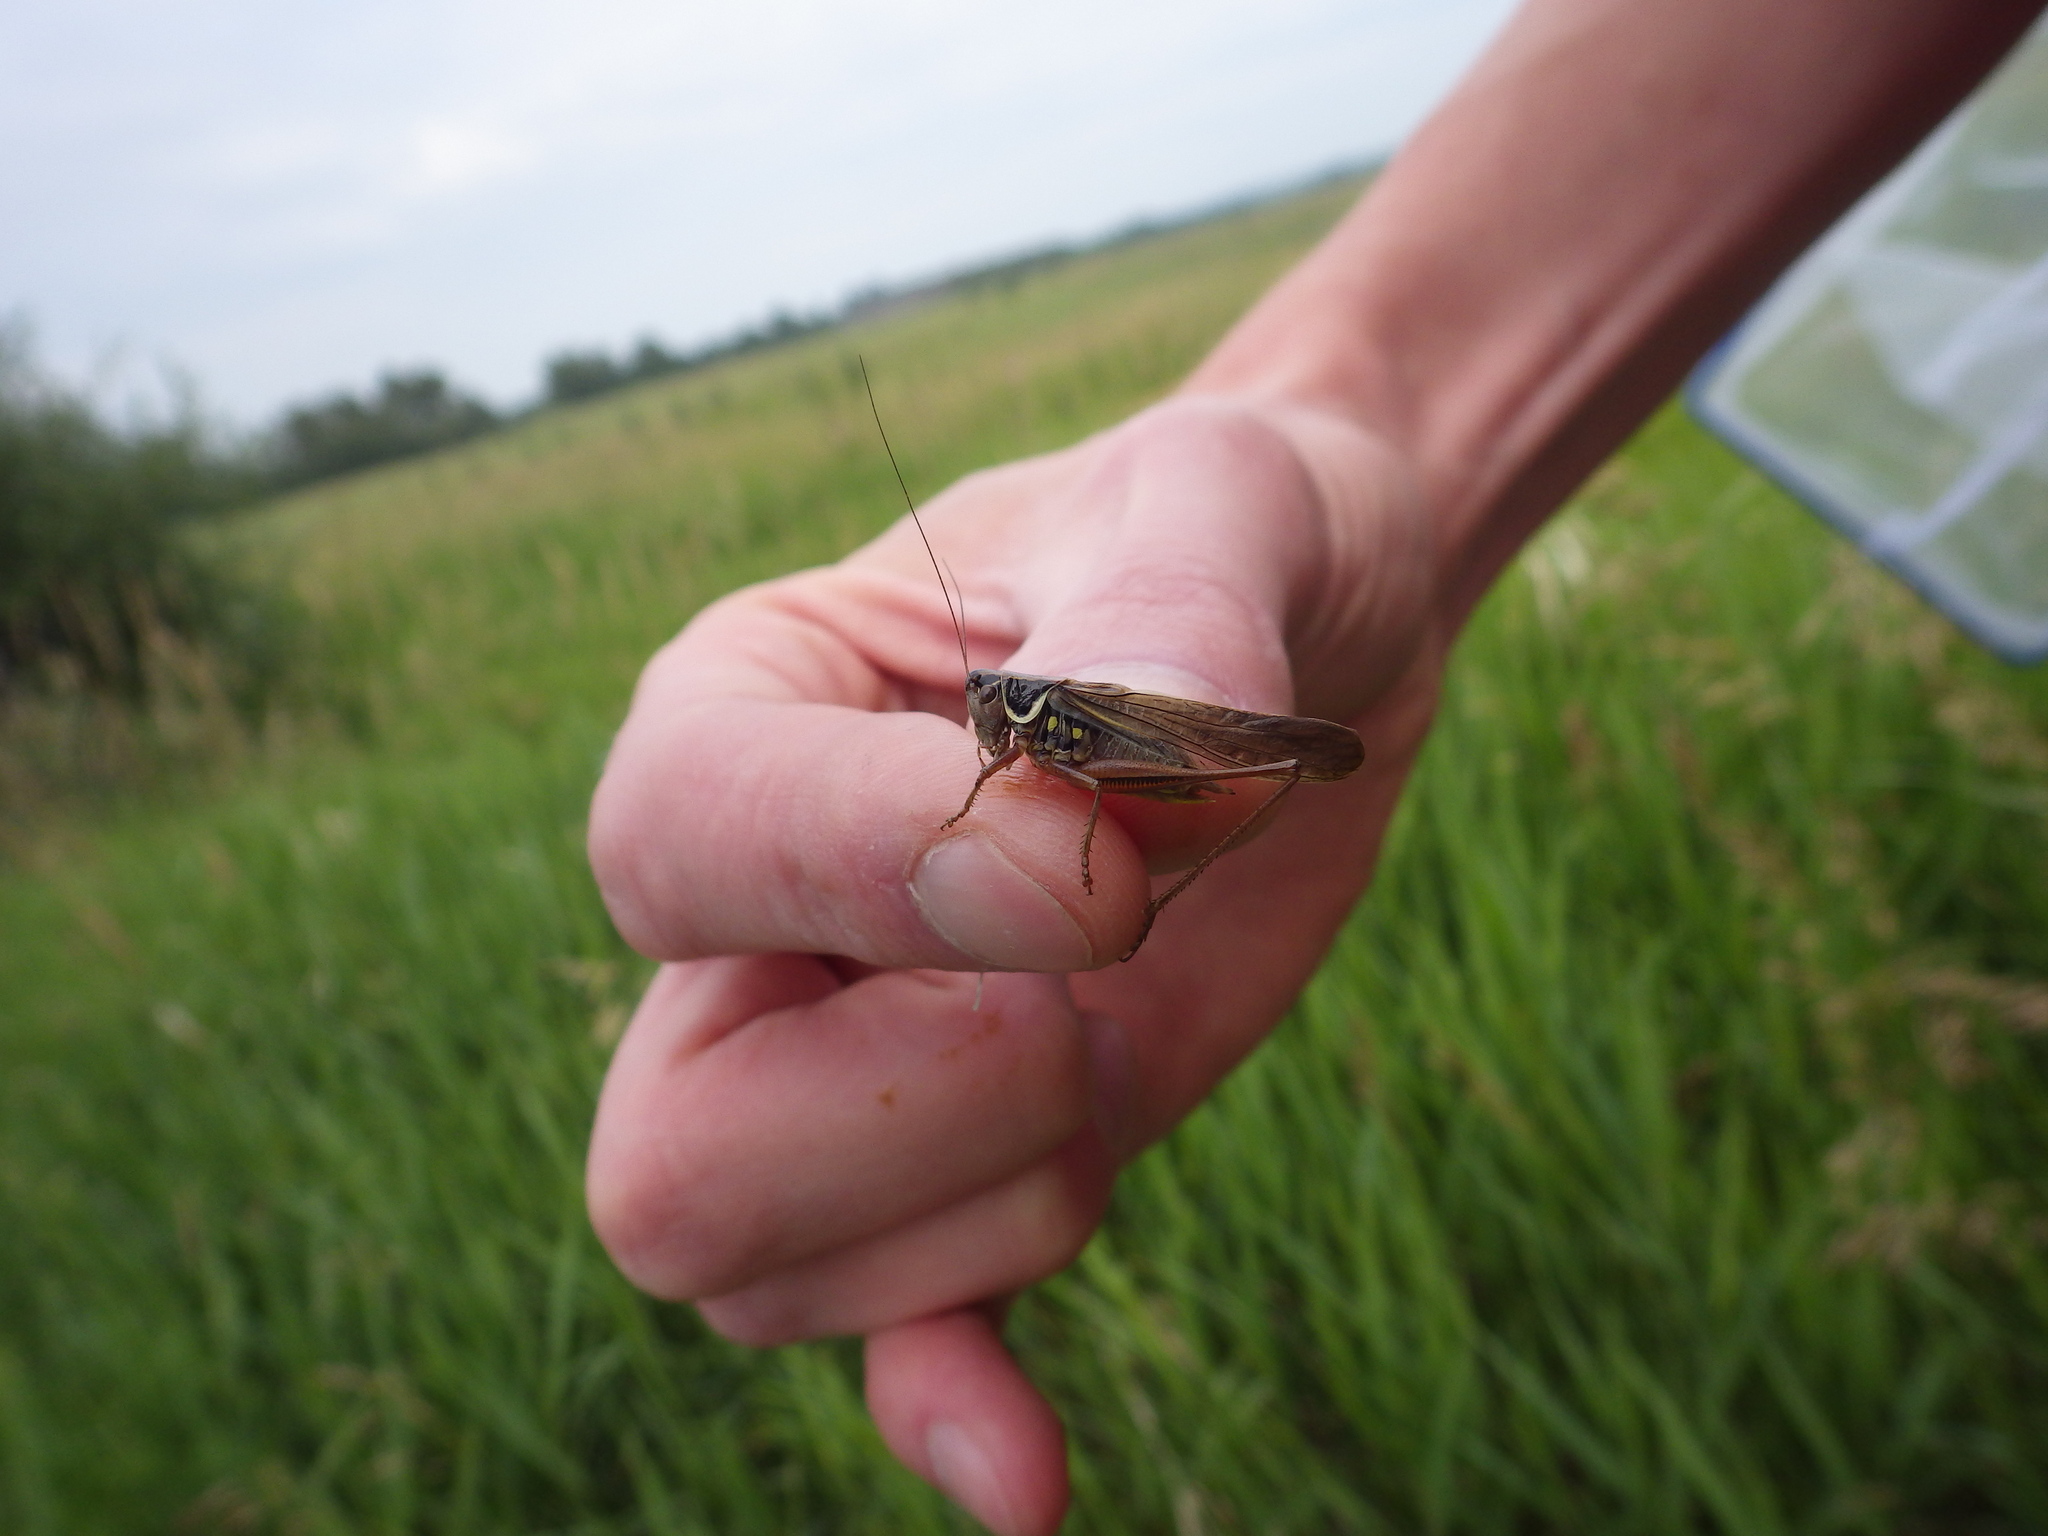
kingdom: Animalia
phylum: Arthropoda
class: Insecta
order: Orthoptera
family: Tettigoniidae
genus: Roeseliana
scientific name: Roeseliana roeselii
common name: Roesel's bush cricket
